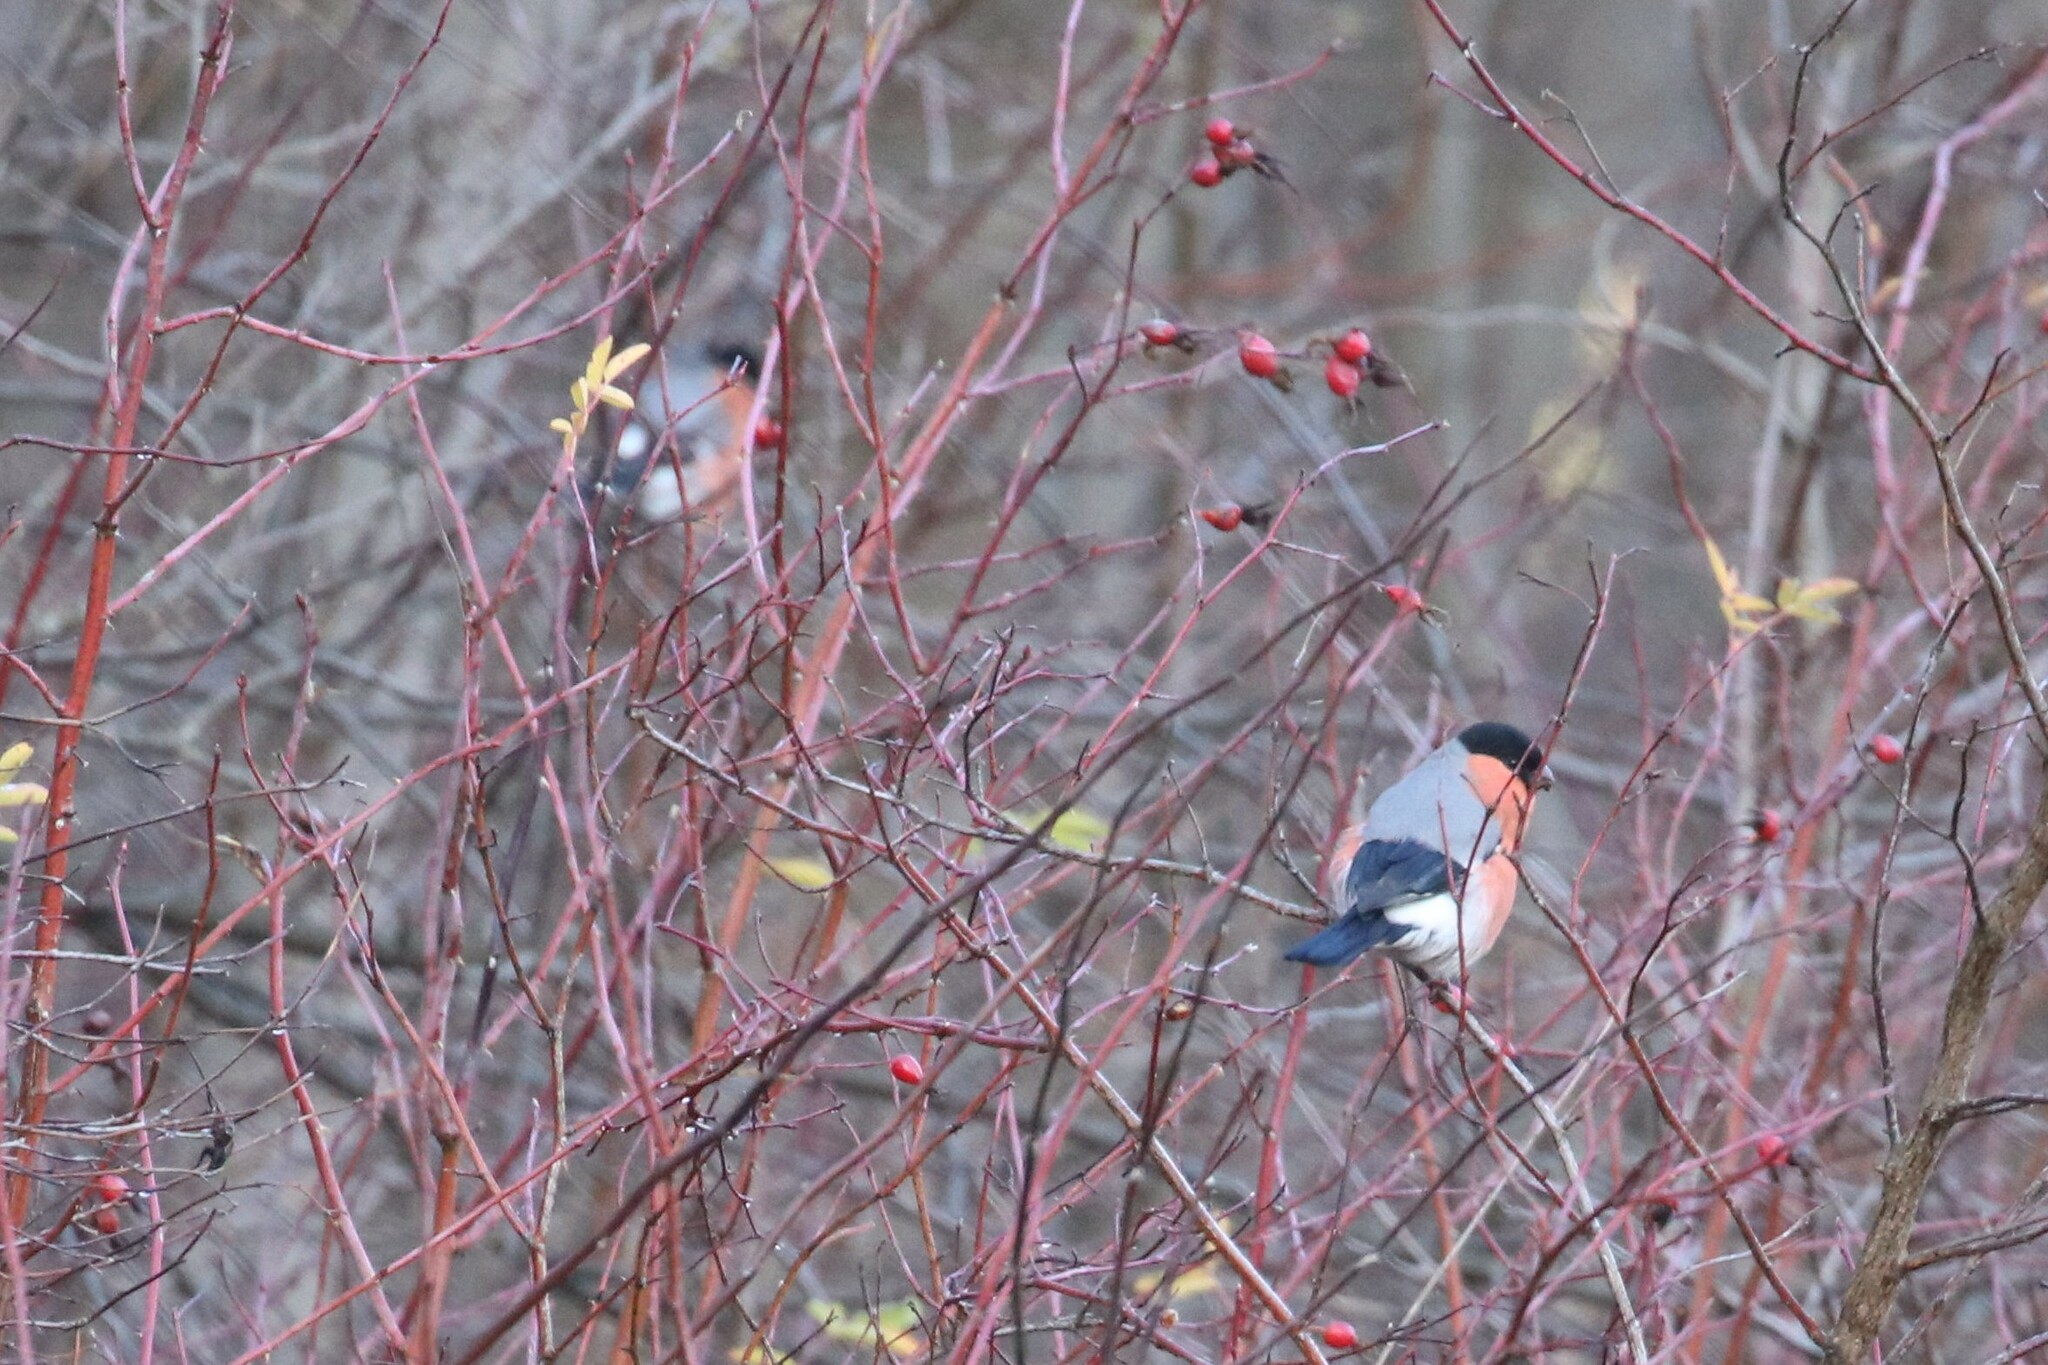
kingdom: Animalia
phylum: Chordata
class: Aves
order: Passeriformes
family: Fringillidae
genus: Pyrrhula
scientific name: Pyrrhula pyrrhula
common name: Eurasian bullfinch
